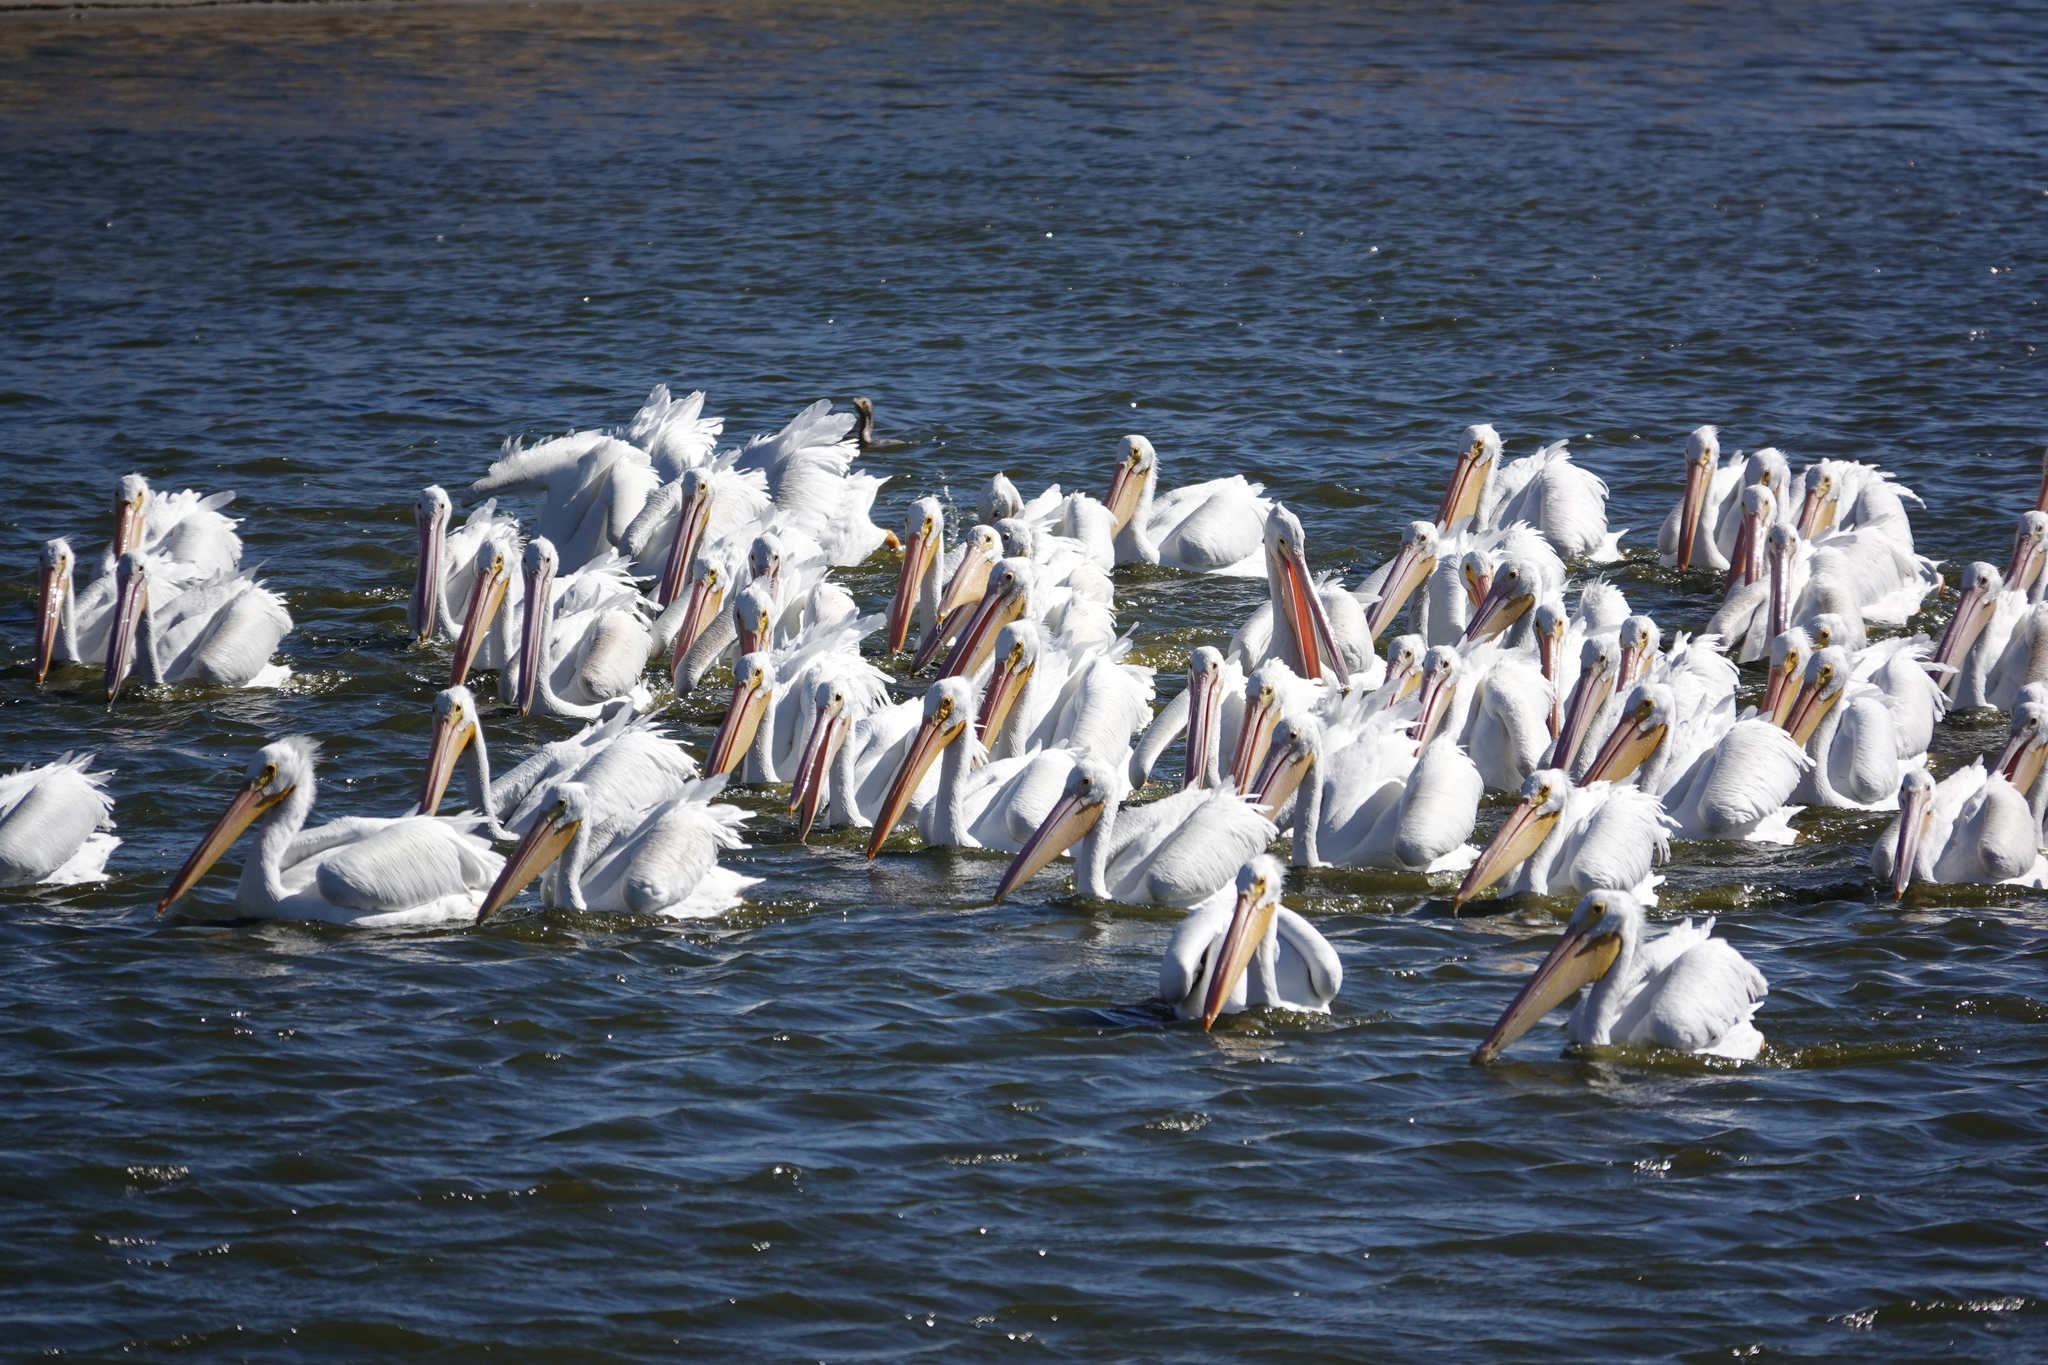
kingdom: Animalia
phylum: Chordata
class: Aves
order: Pelecaniformes
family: Pelecanidae
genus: Pelecanus
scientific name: Pelecanus erythrorhynchos
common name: American white pelican
